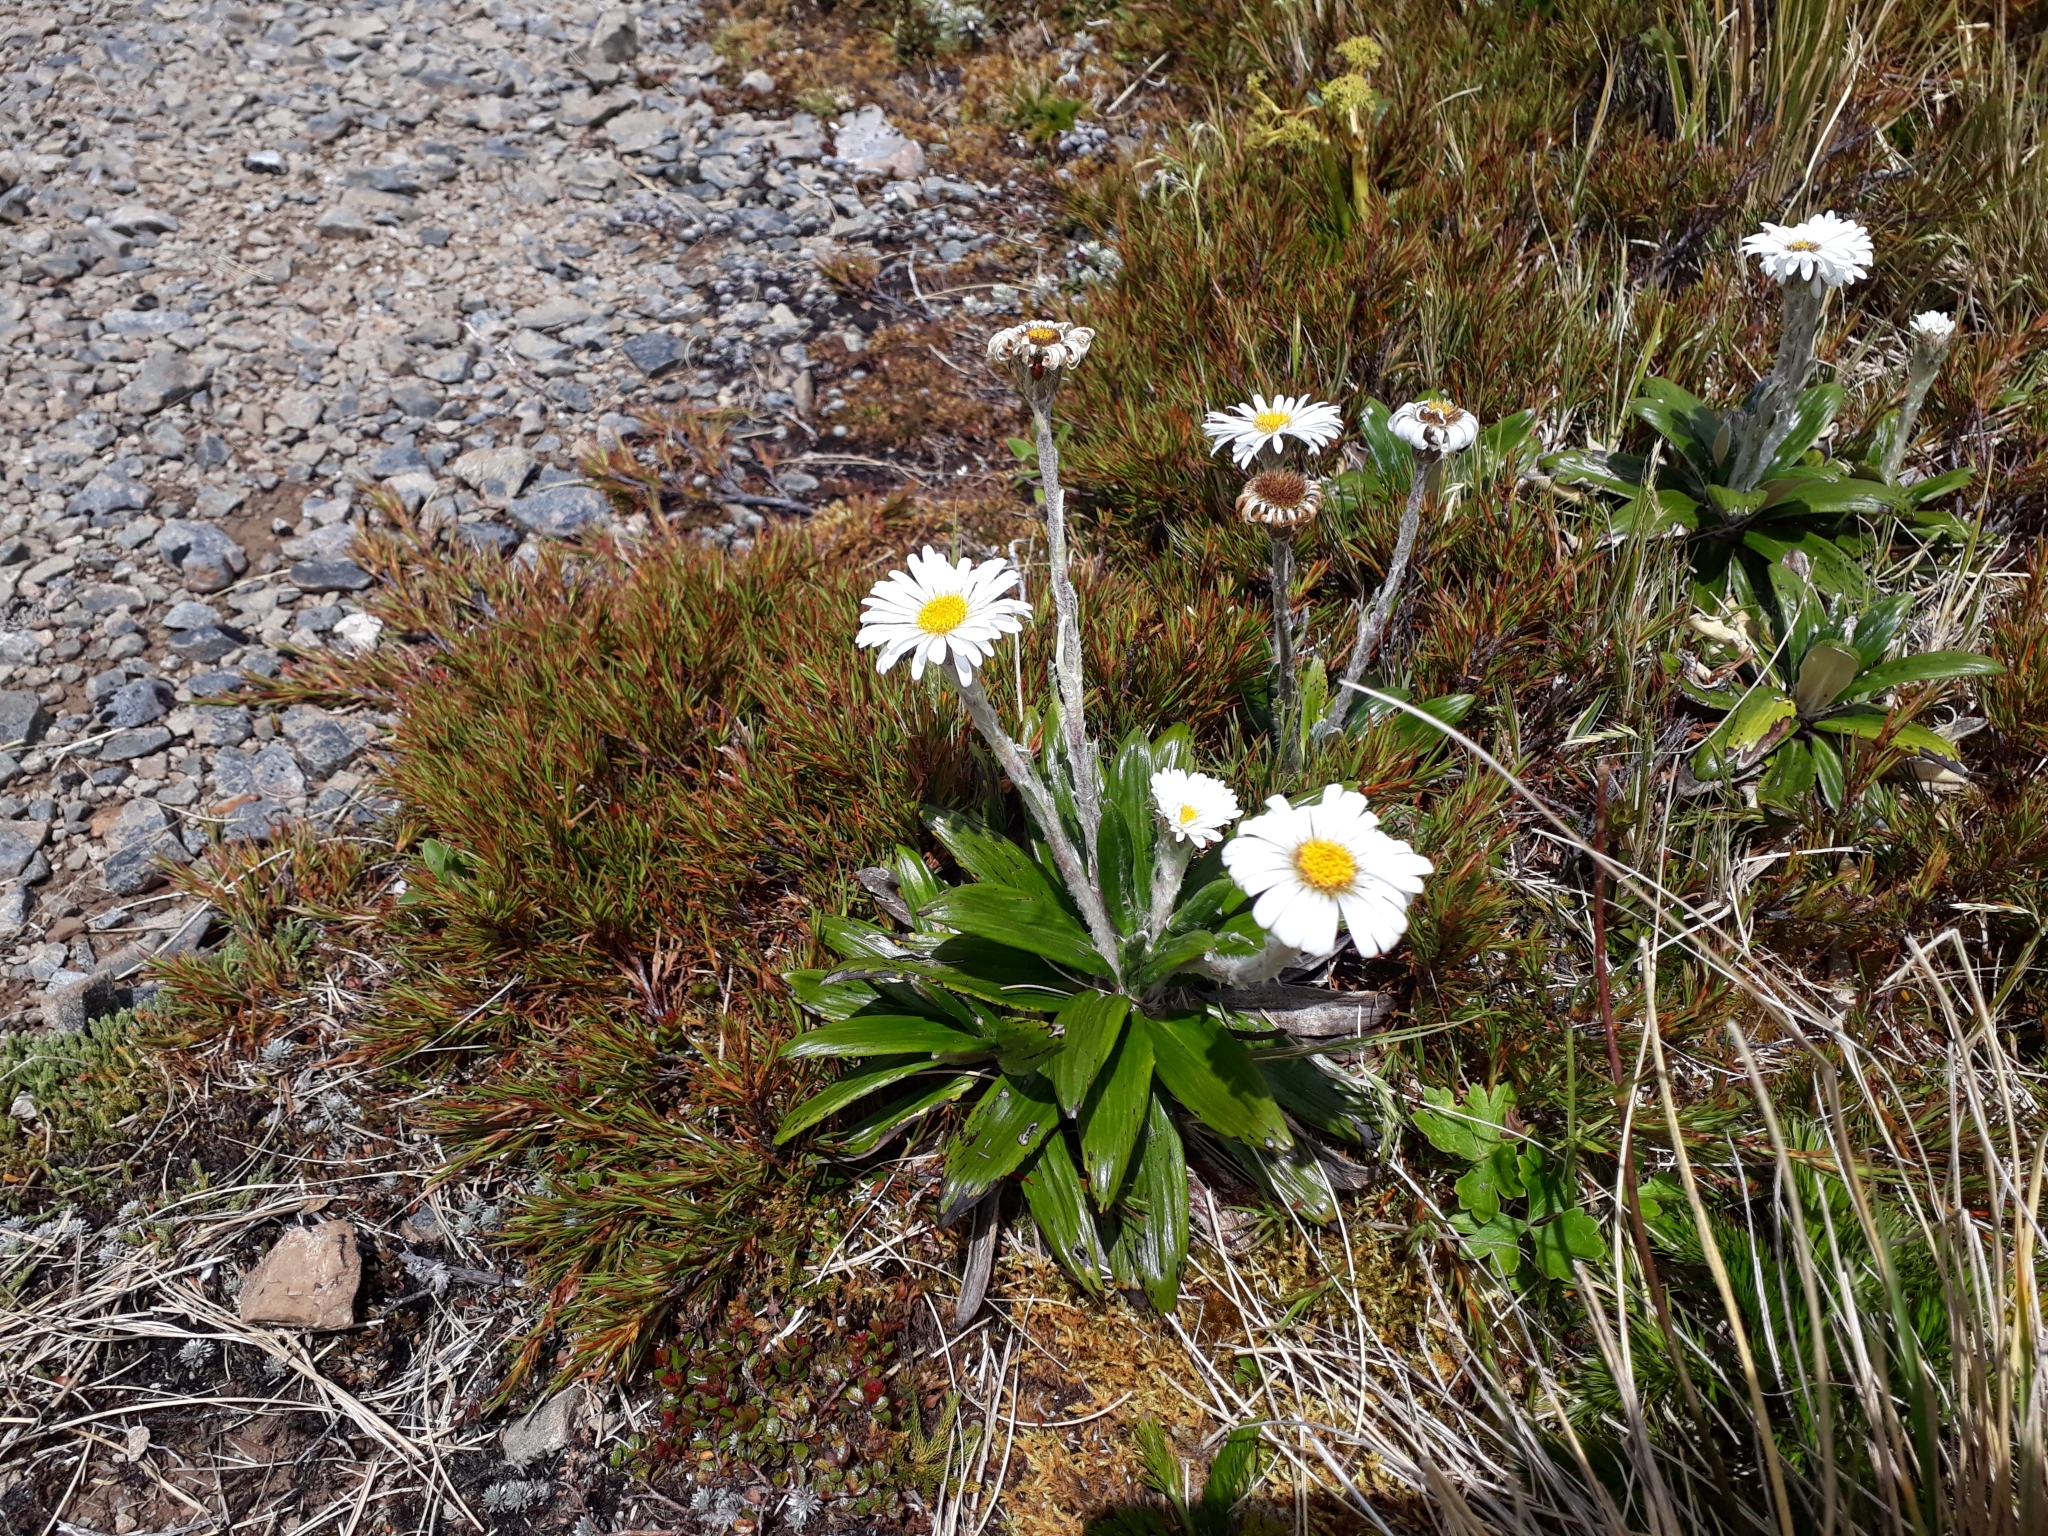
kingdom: Plantae
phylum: Tracheophyta
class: Magnoliopsida
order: Asterales
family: Asteraceae
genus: Celmisia
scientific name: Celmisia spectabilis
